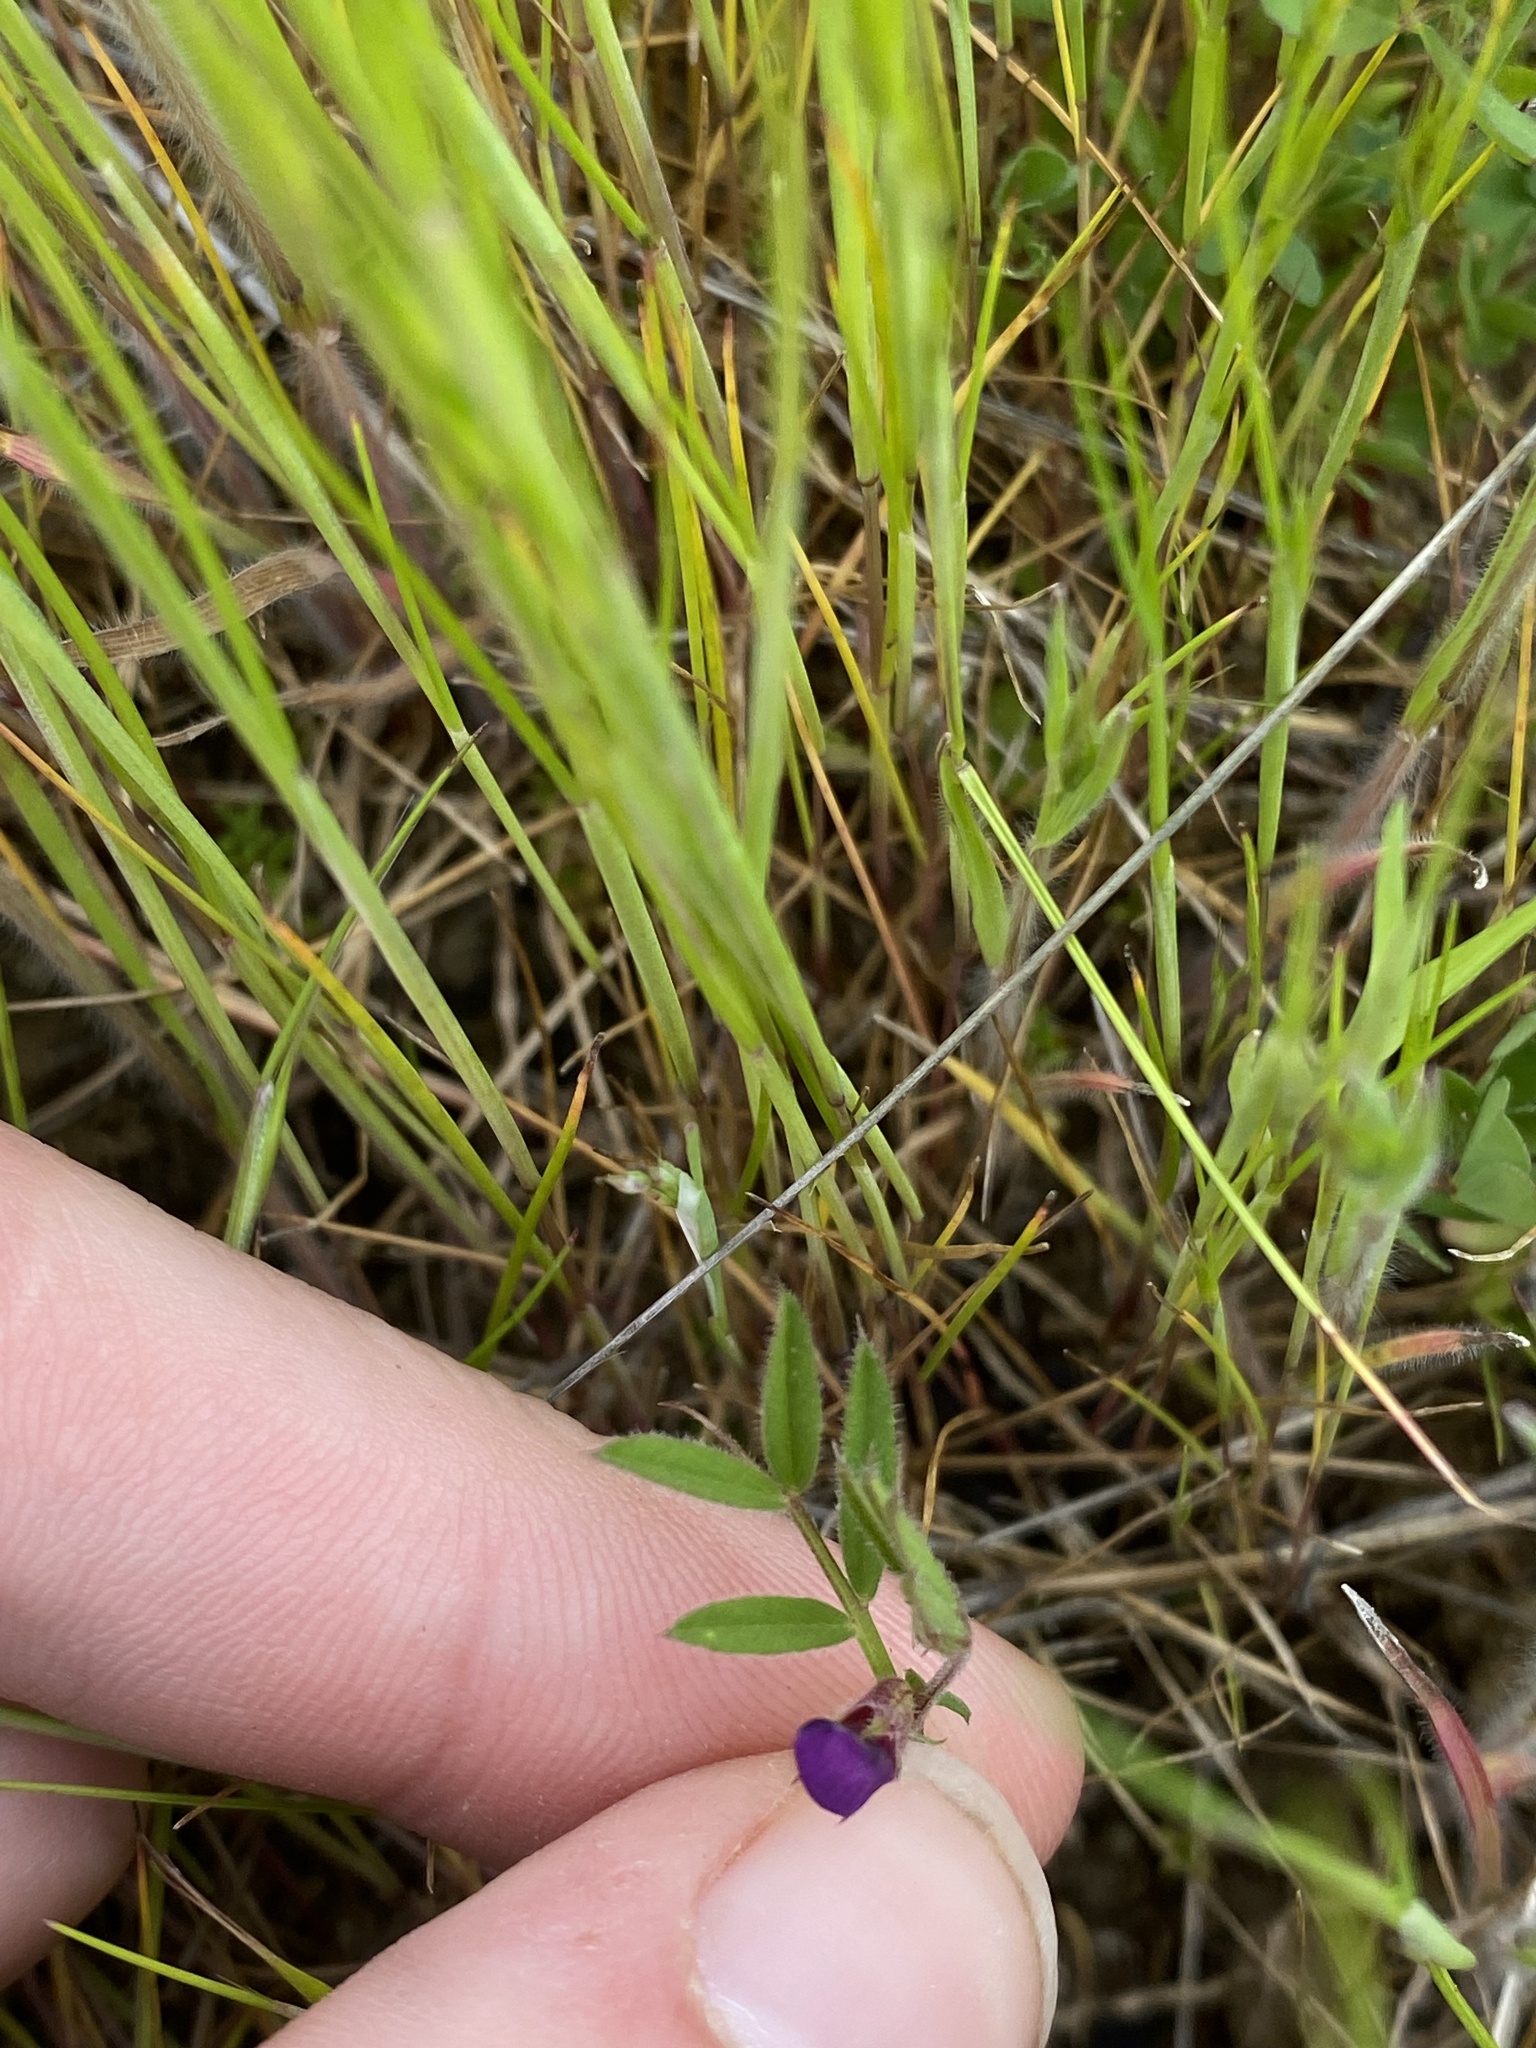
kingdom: Plantae
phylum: Tracheophyta
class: Magnoliopsida
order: Fabales
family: Fabaceae
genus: Vicia
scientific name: Vicia sativa
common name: Garden vetch
